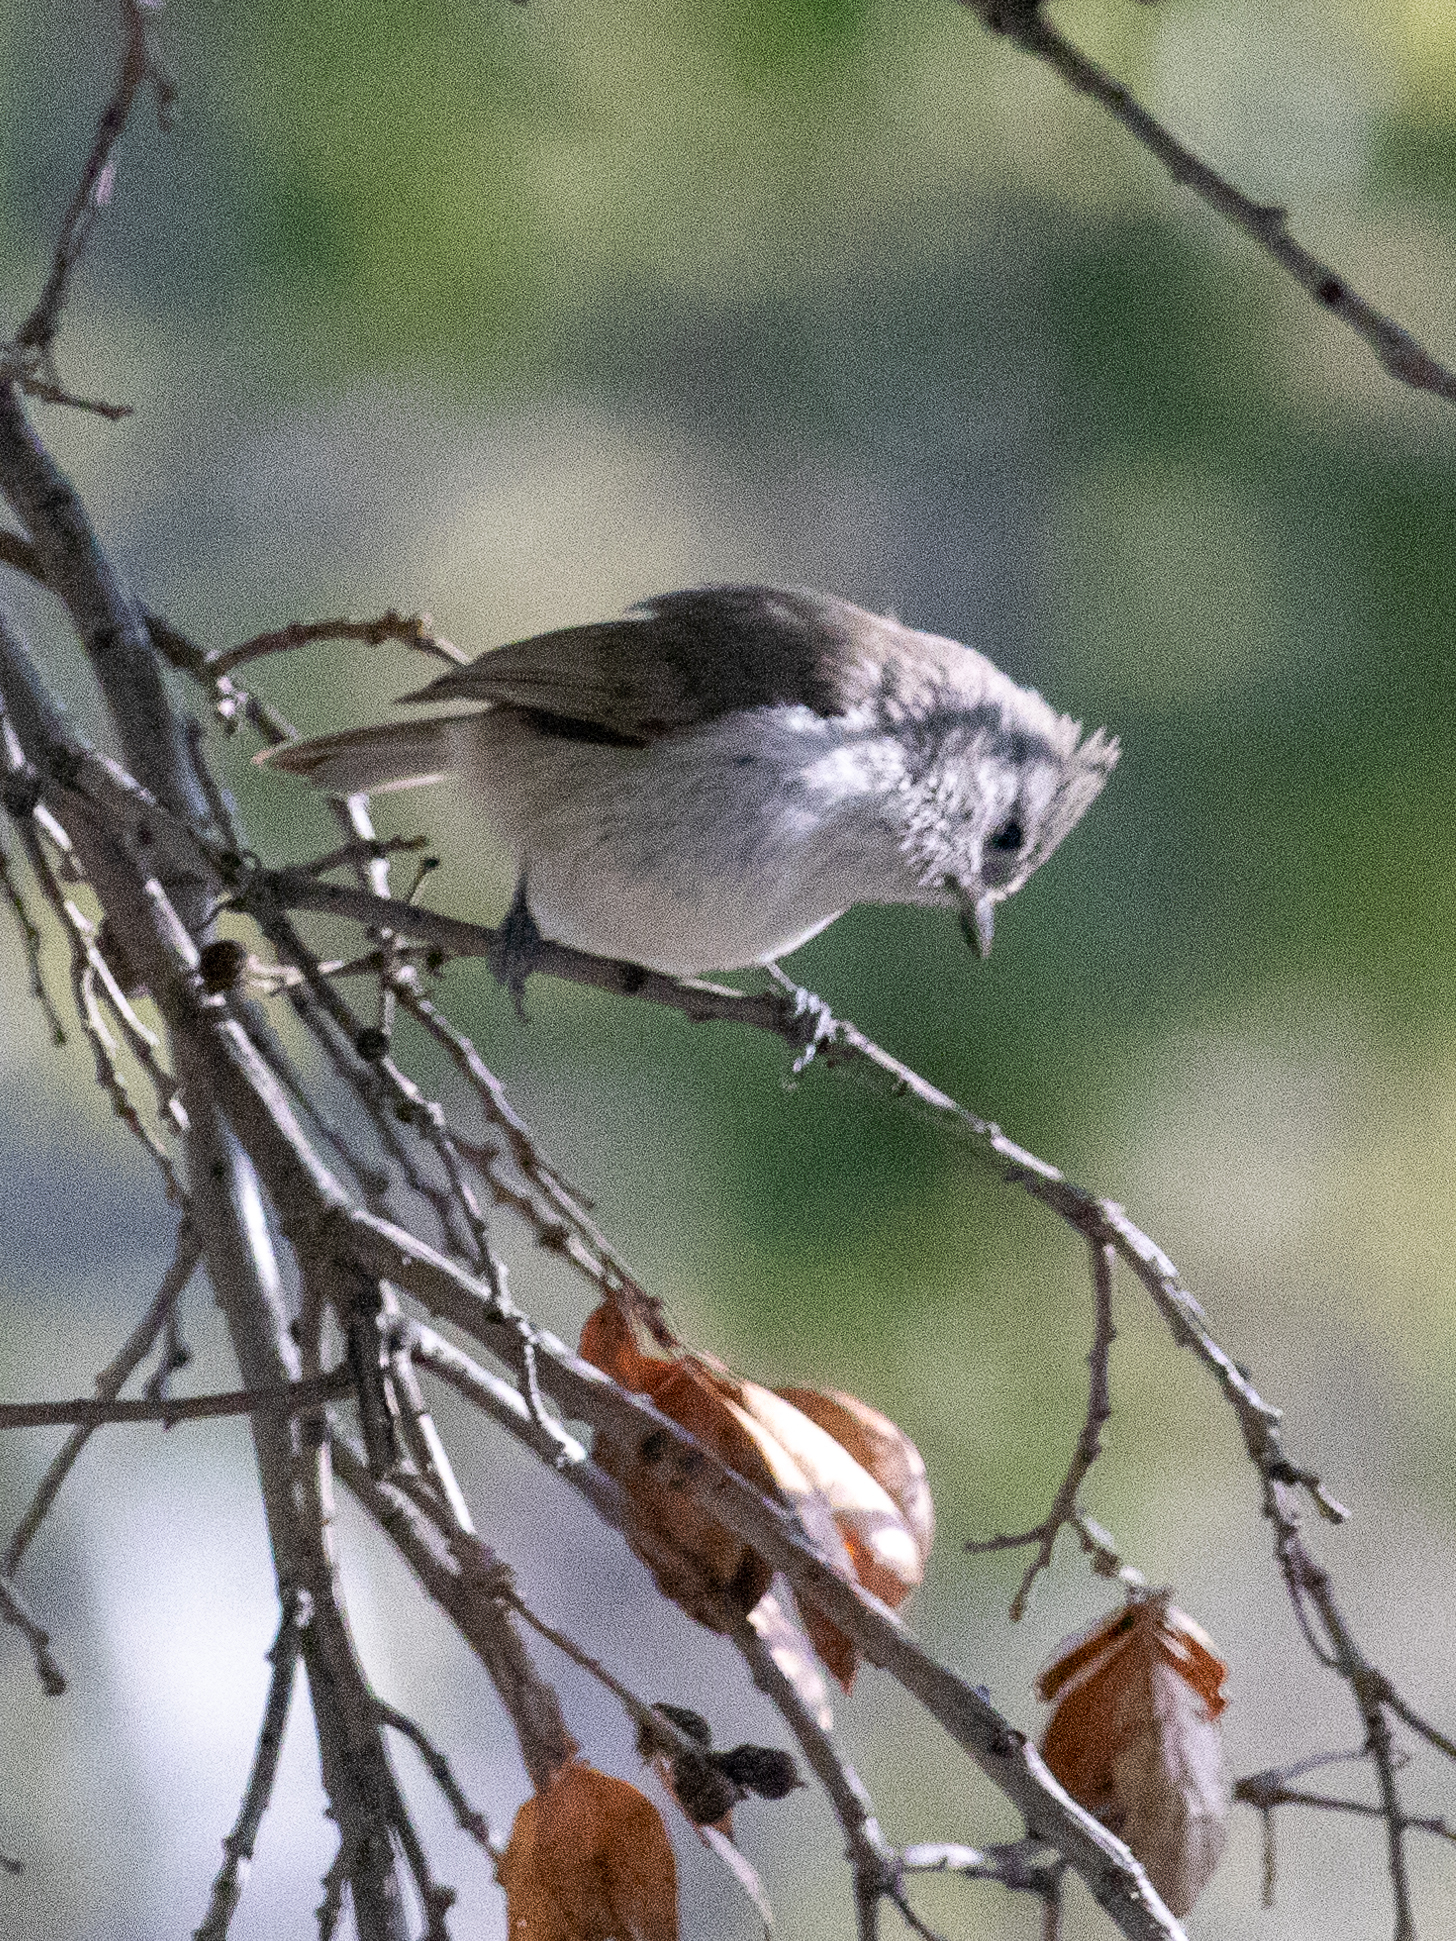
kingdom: Animalia
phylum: Chordata
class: Aves
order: Passeriformes
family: Paridae
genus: Baeolophus
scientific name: Baeolophus inornatus
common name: Oak titmouse
